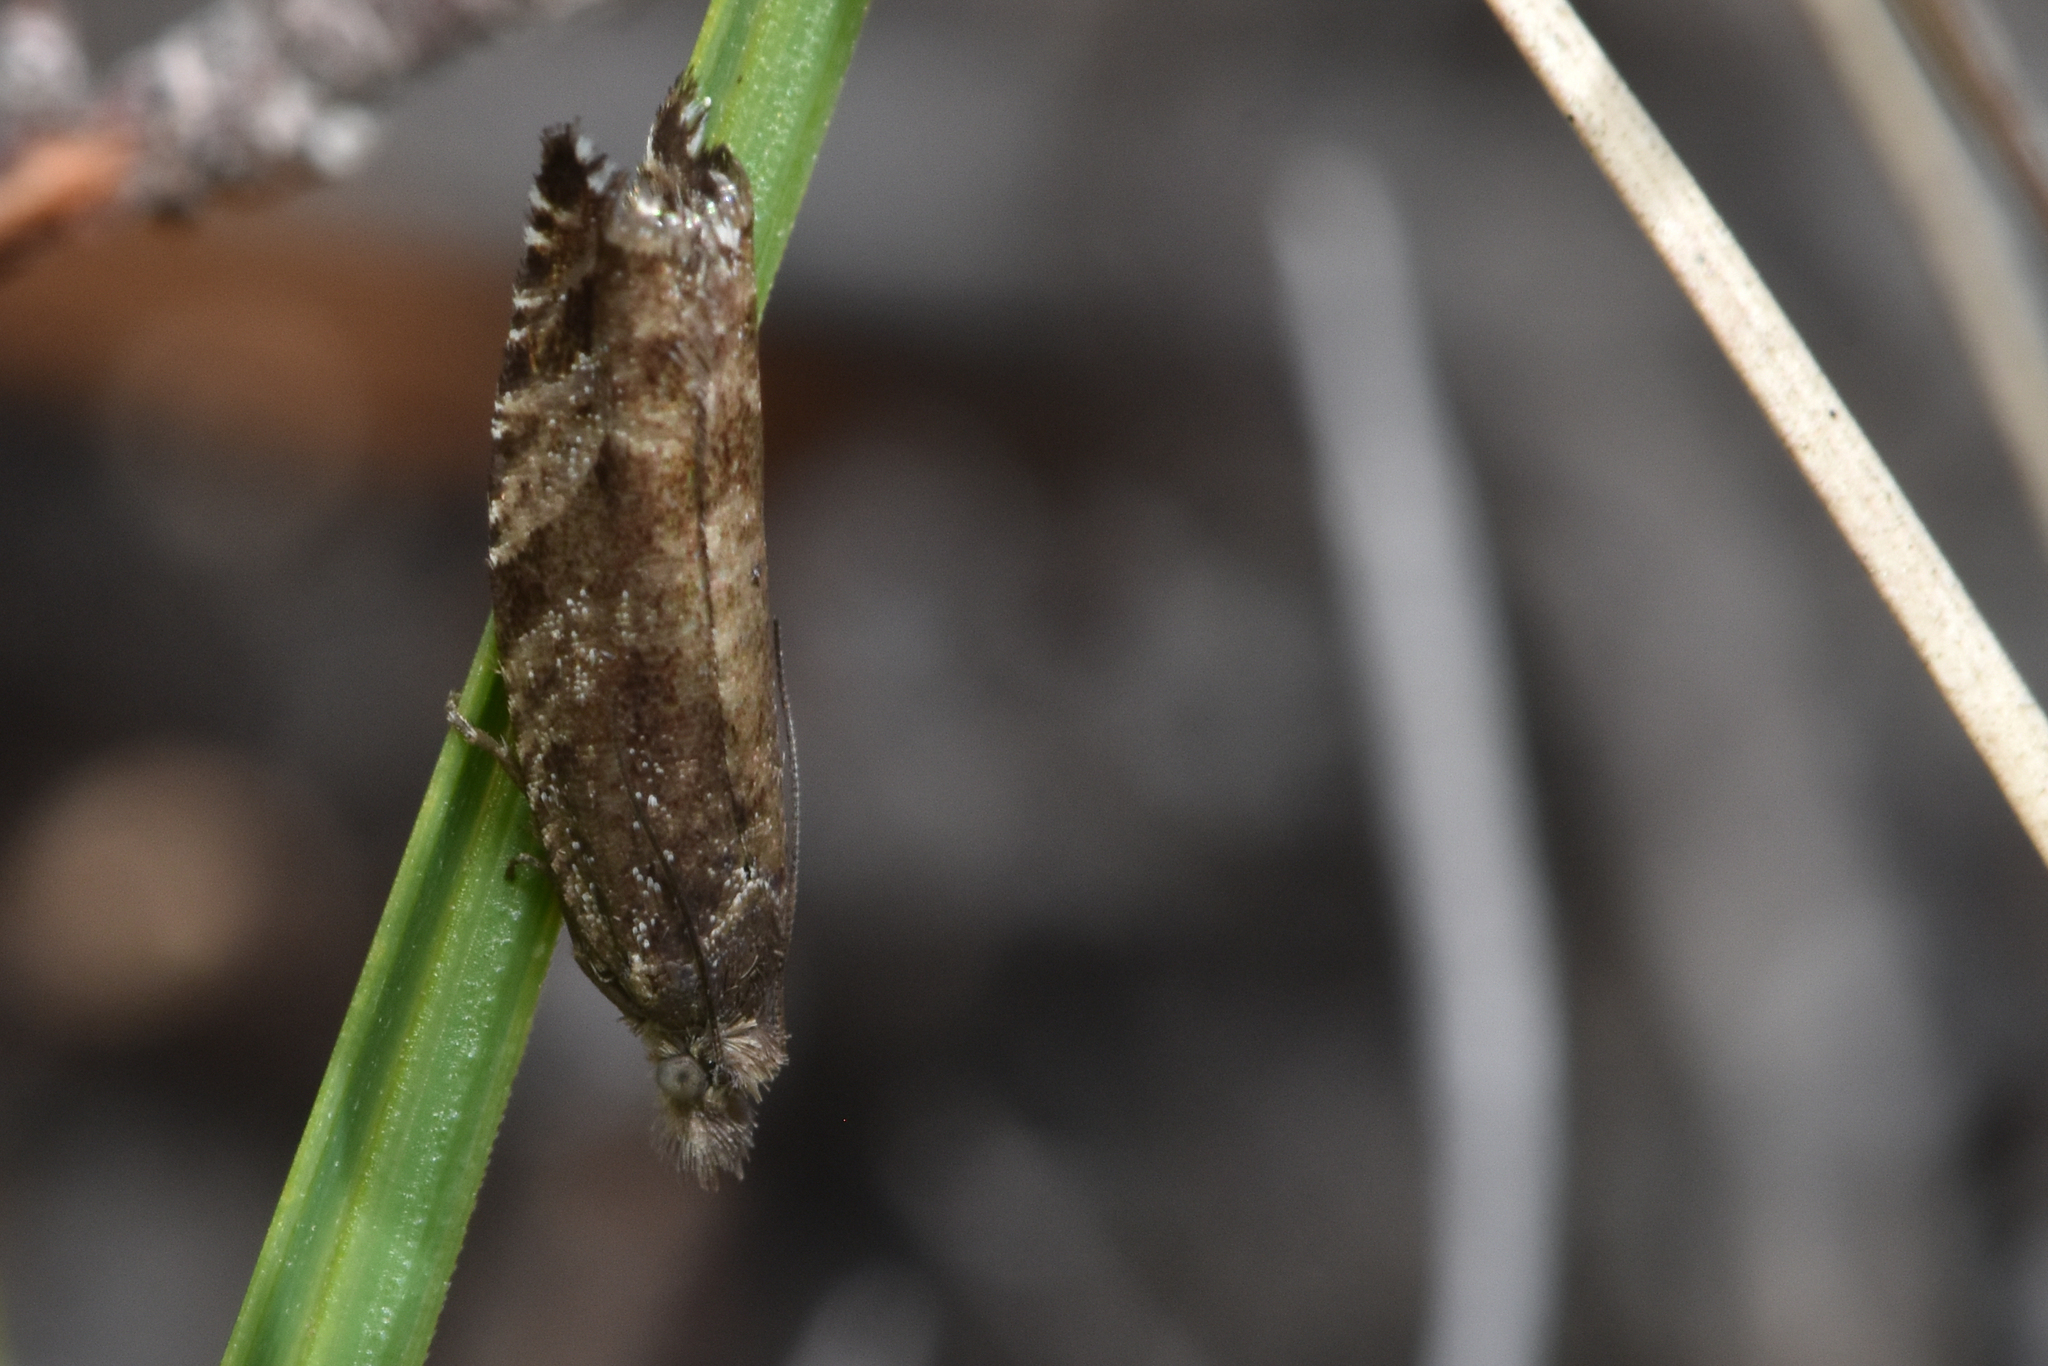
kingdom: Animalia
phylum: Arthropoda
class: Insecta
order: Lepidoptera
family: Tortricidae
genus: Ancylis
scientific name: Ancylis unguicella
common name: Broken-barred roller
